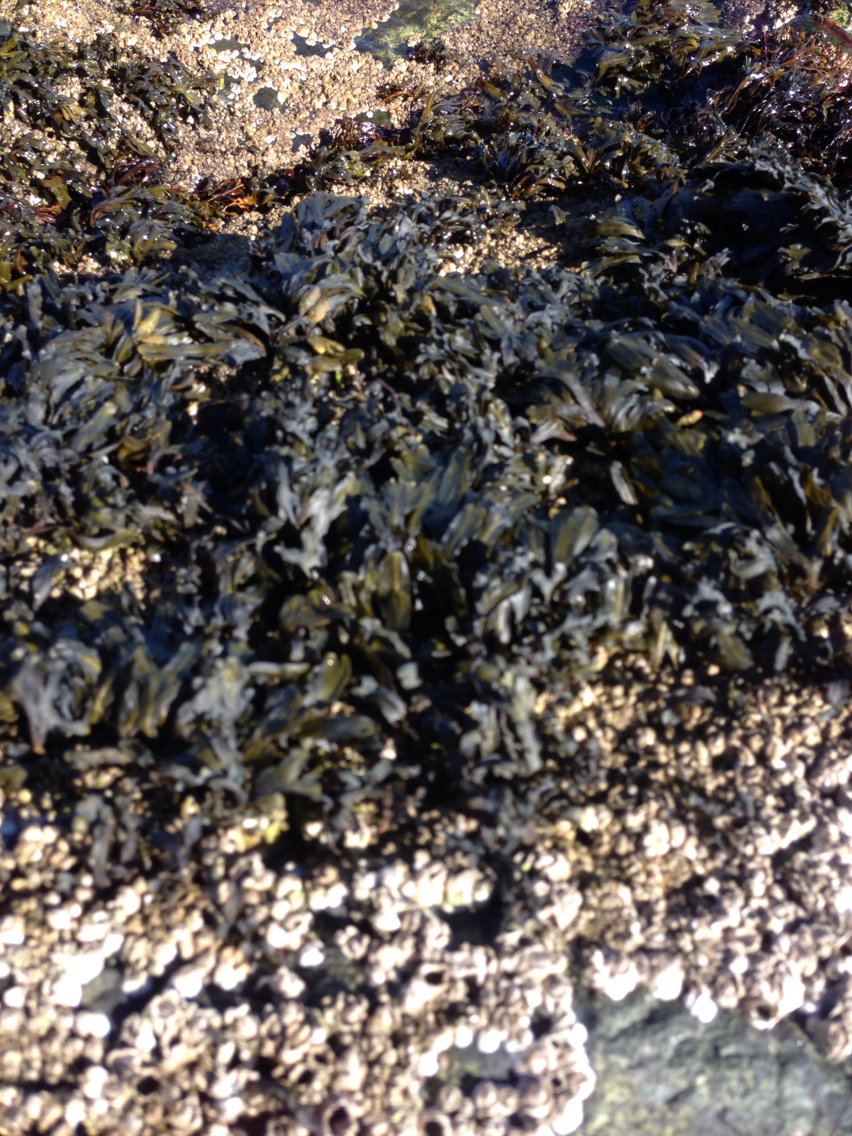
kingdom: Chromista
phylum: Ochrophyta
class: Phaeophyceae
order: Fucales
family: Fucaceae
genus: Fucus
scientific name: Fucus vesiculosus
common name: Bladder wrack
